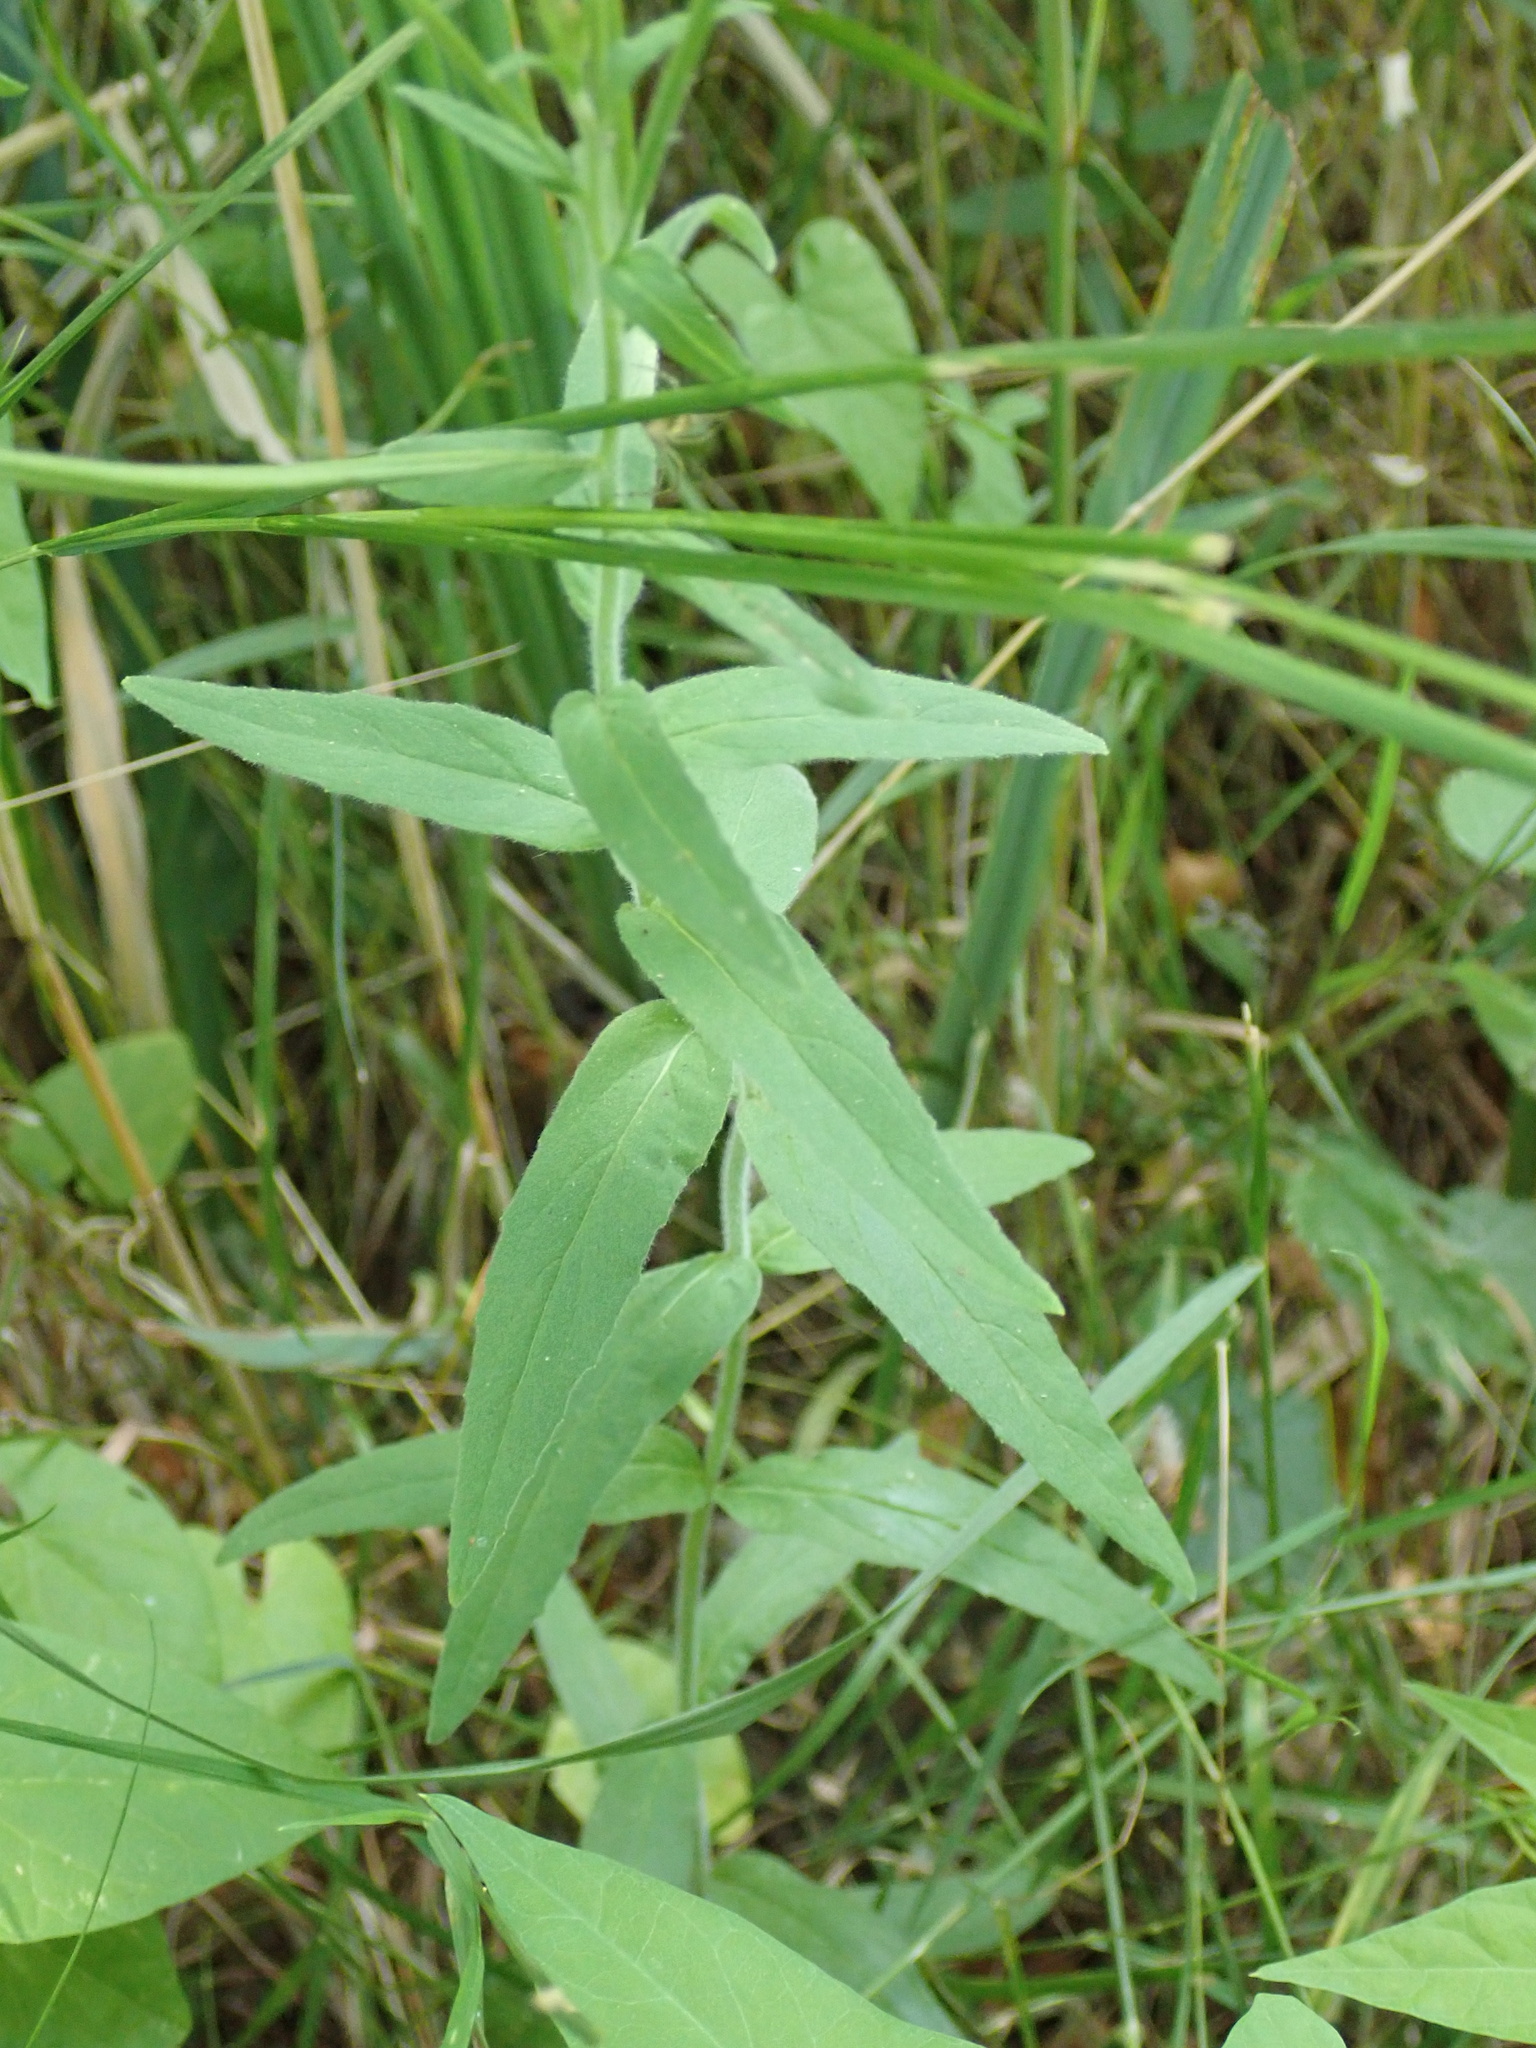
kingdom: Plantae
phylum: Tracheophyta
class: Magnoliopsida
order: Myrtales
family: Onagraceae
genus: Epilobium
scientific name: Epilobium parviflorum
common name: Hoary willowherb
